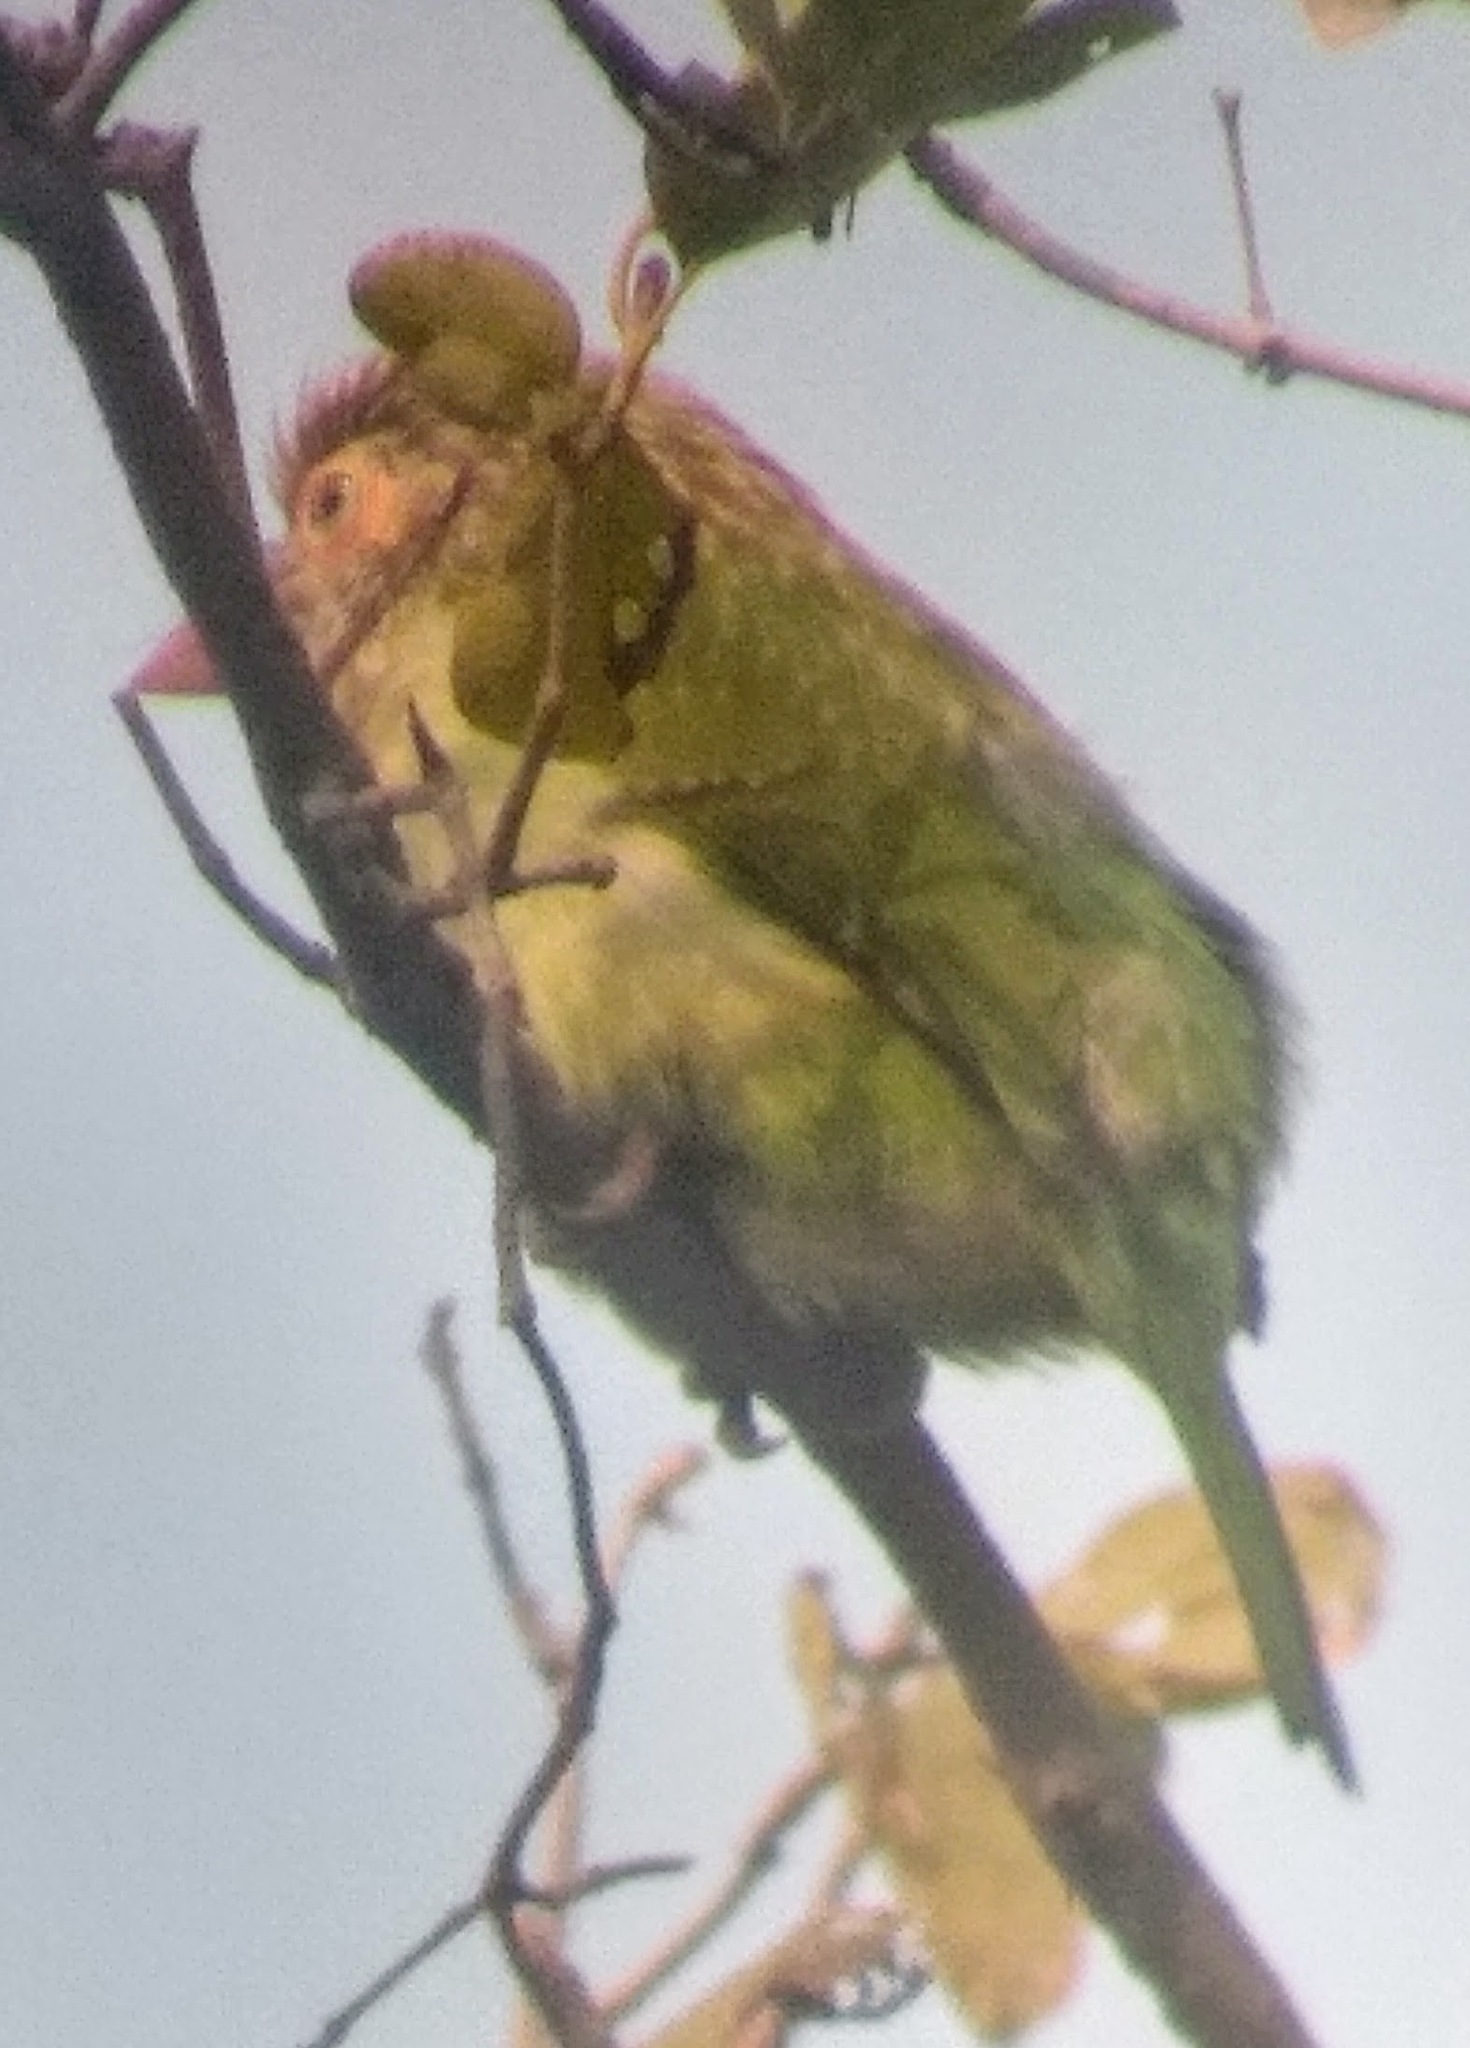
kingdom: Animalia
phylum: Chordata
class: Aves
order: Piciformes
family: Megalaimidae
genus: Psilopogon
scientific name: Psilopogon zeylanicus
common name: Brown-headed barbet
